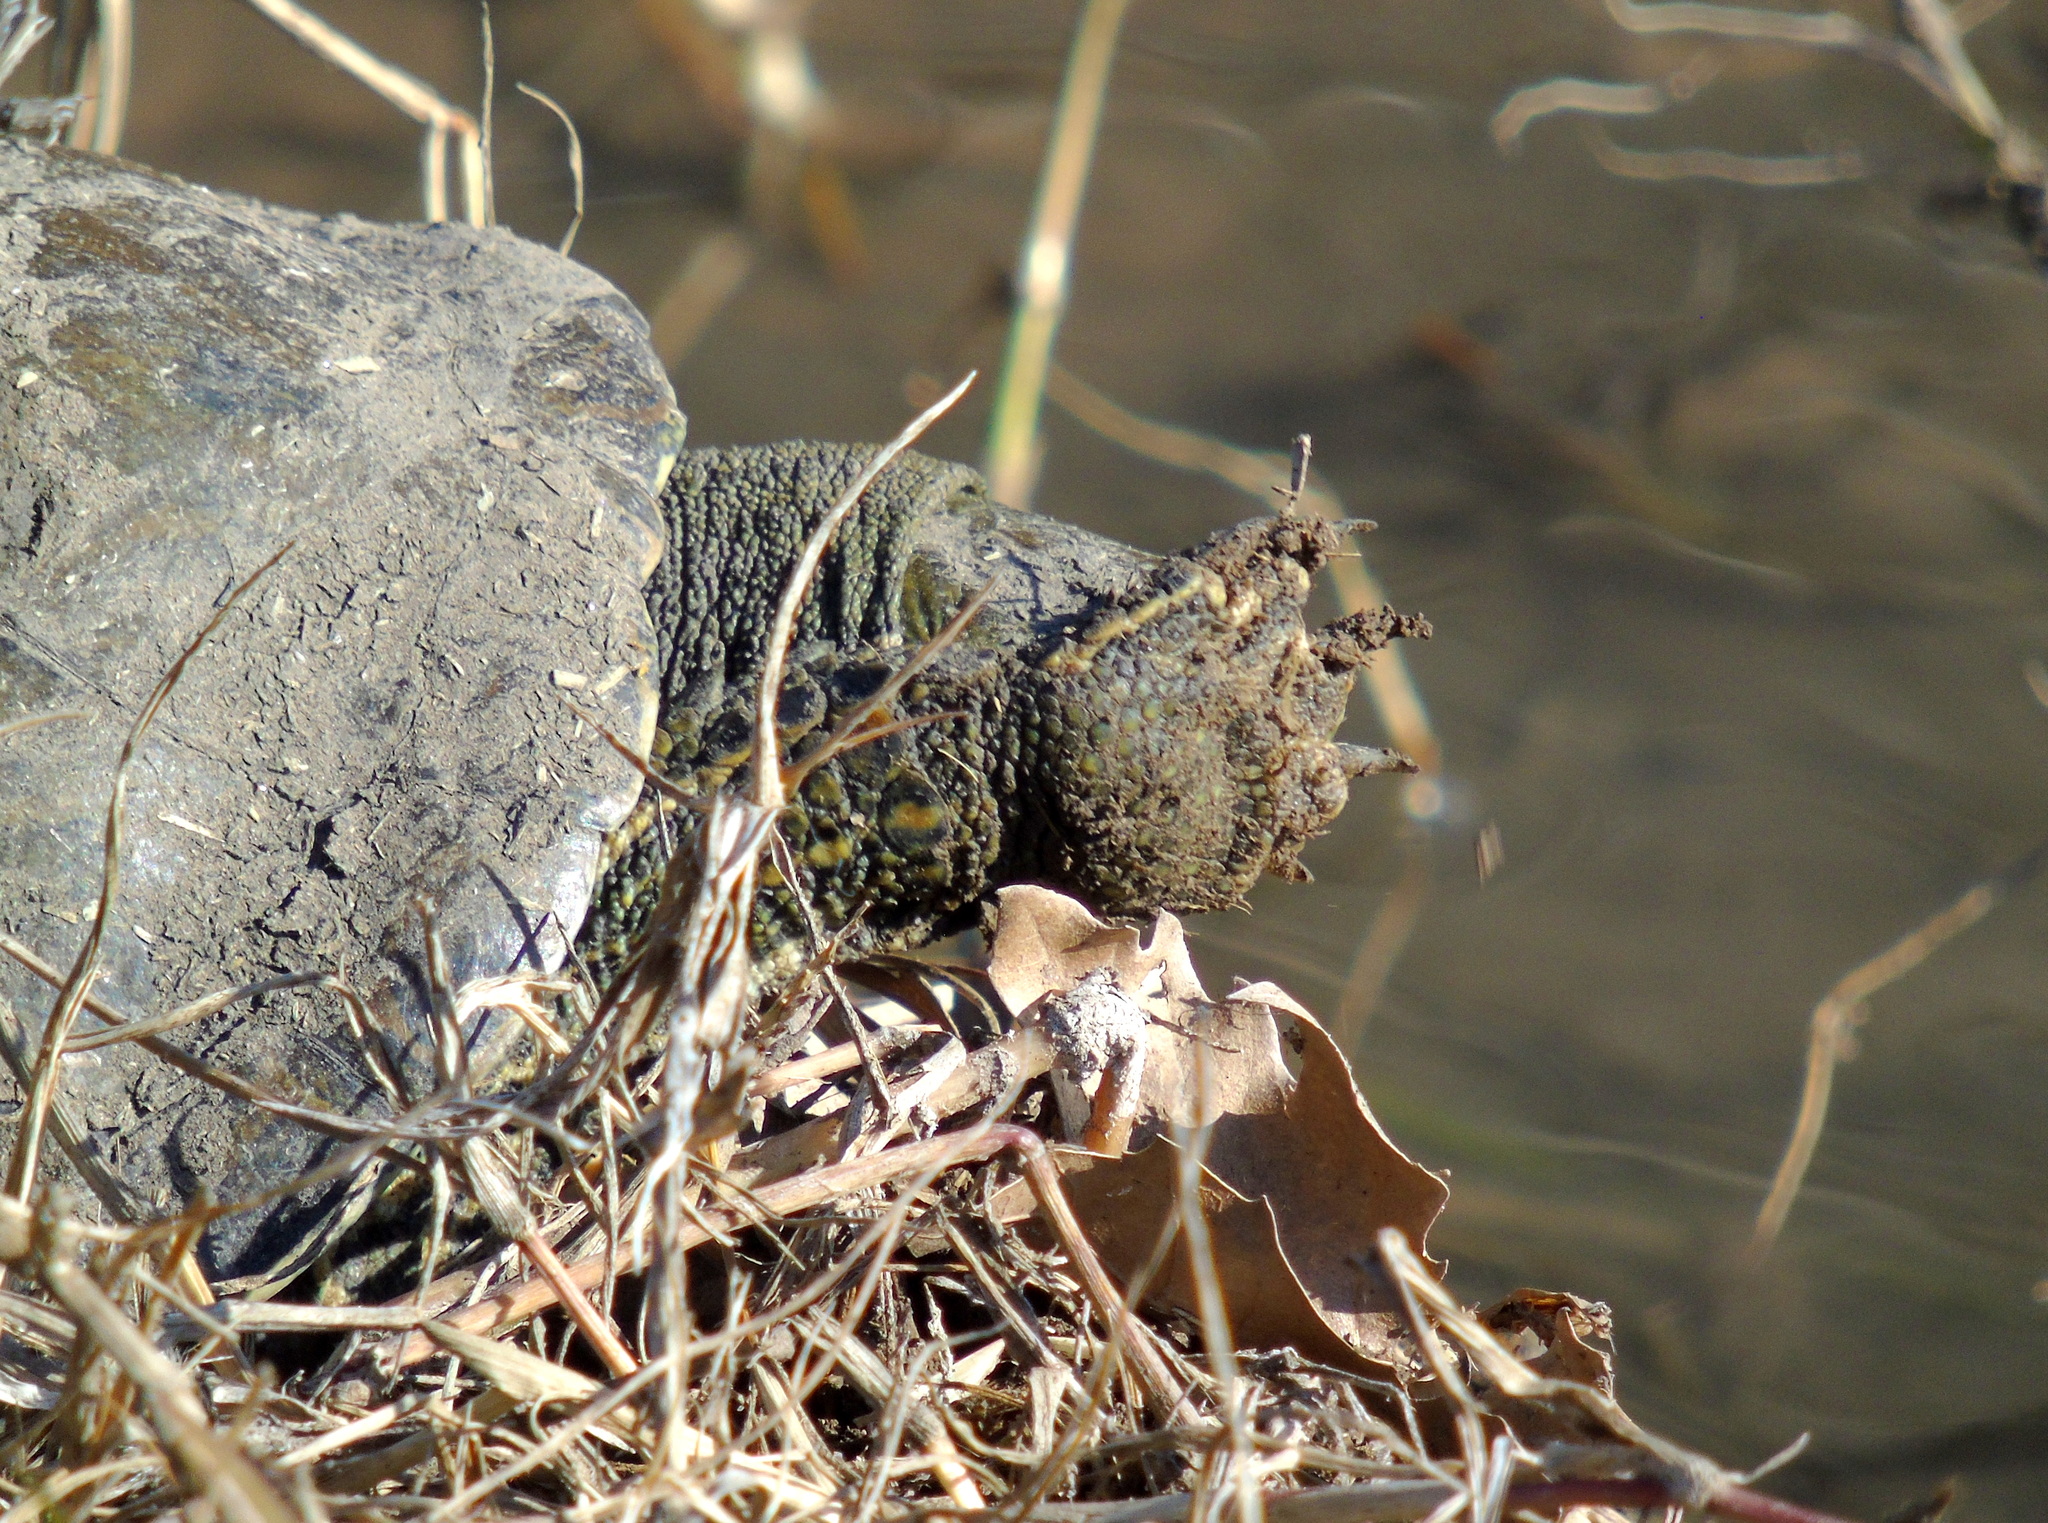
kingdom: Animalia
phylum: Chordata
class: Testudines
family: Geoemydidae
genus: Mauremys
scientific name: Mauremys caspica
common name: Caspian turtle
